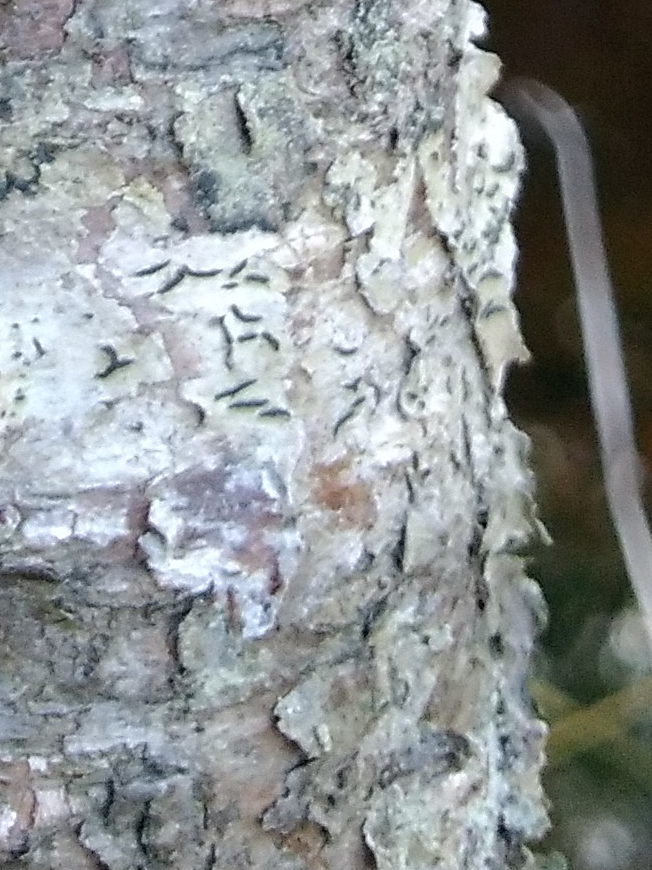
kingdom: Fungi
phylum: Ascomycota
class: Lecanoromycetes
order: Ostropales
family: Graphidaceae
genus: Graphis
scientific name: Graphis scripta
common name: Script lichen
